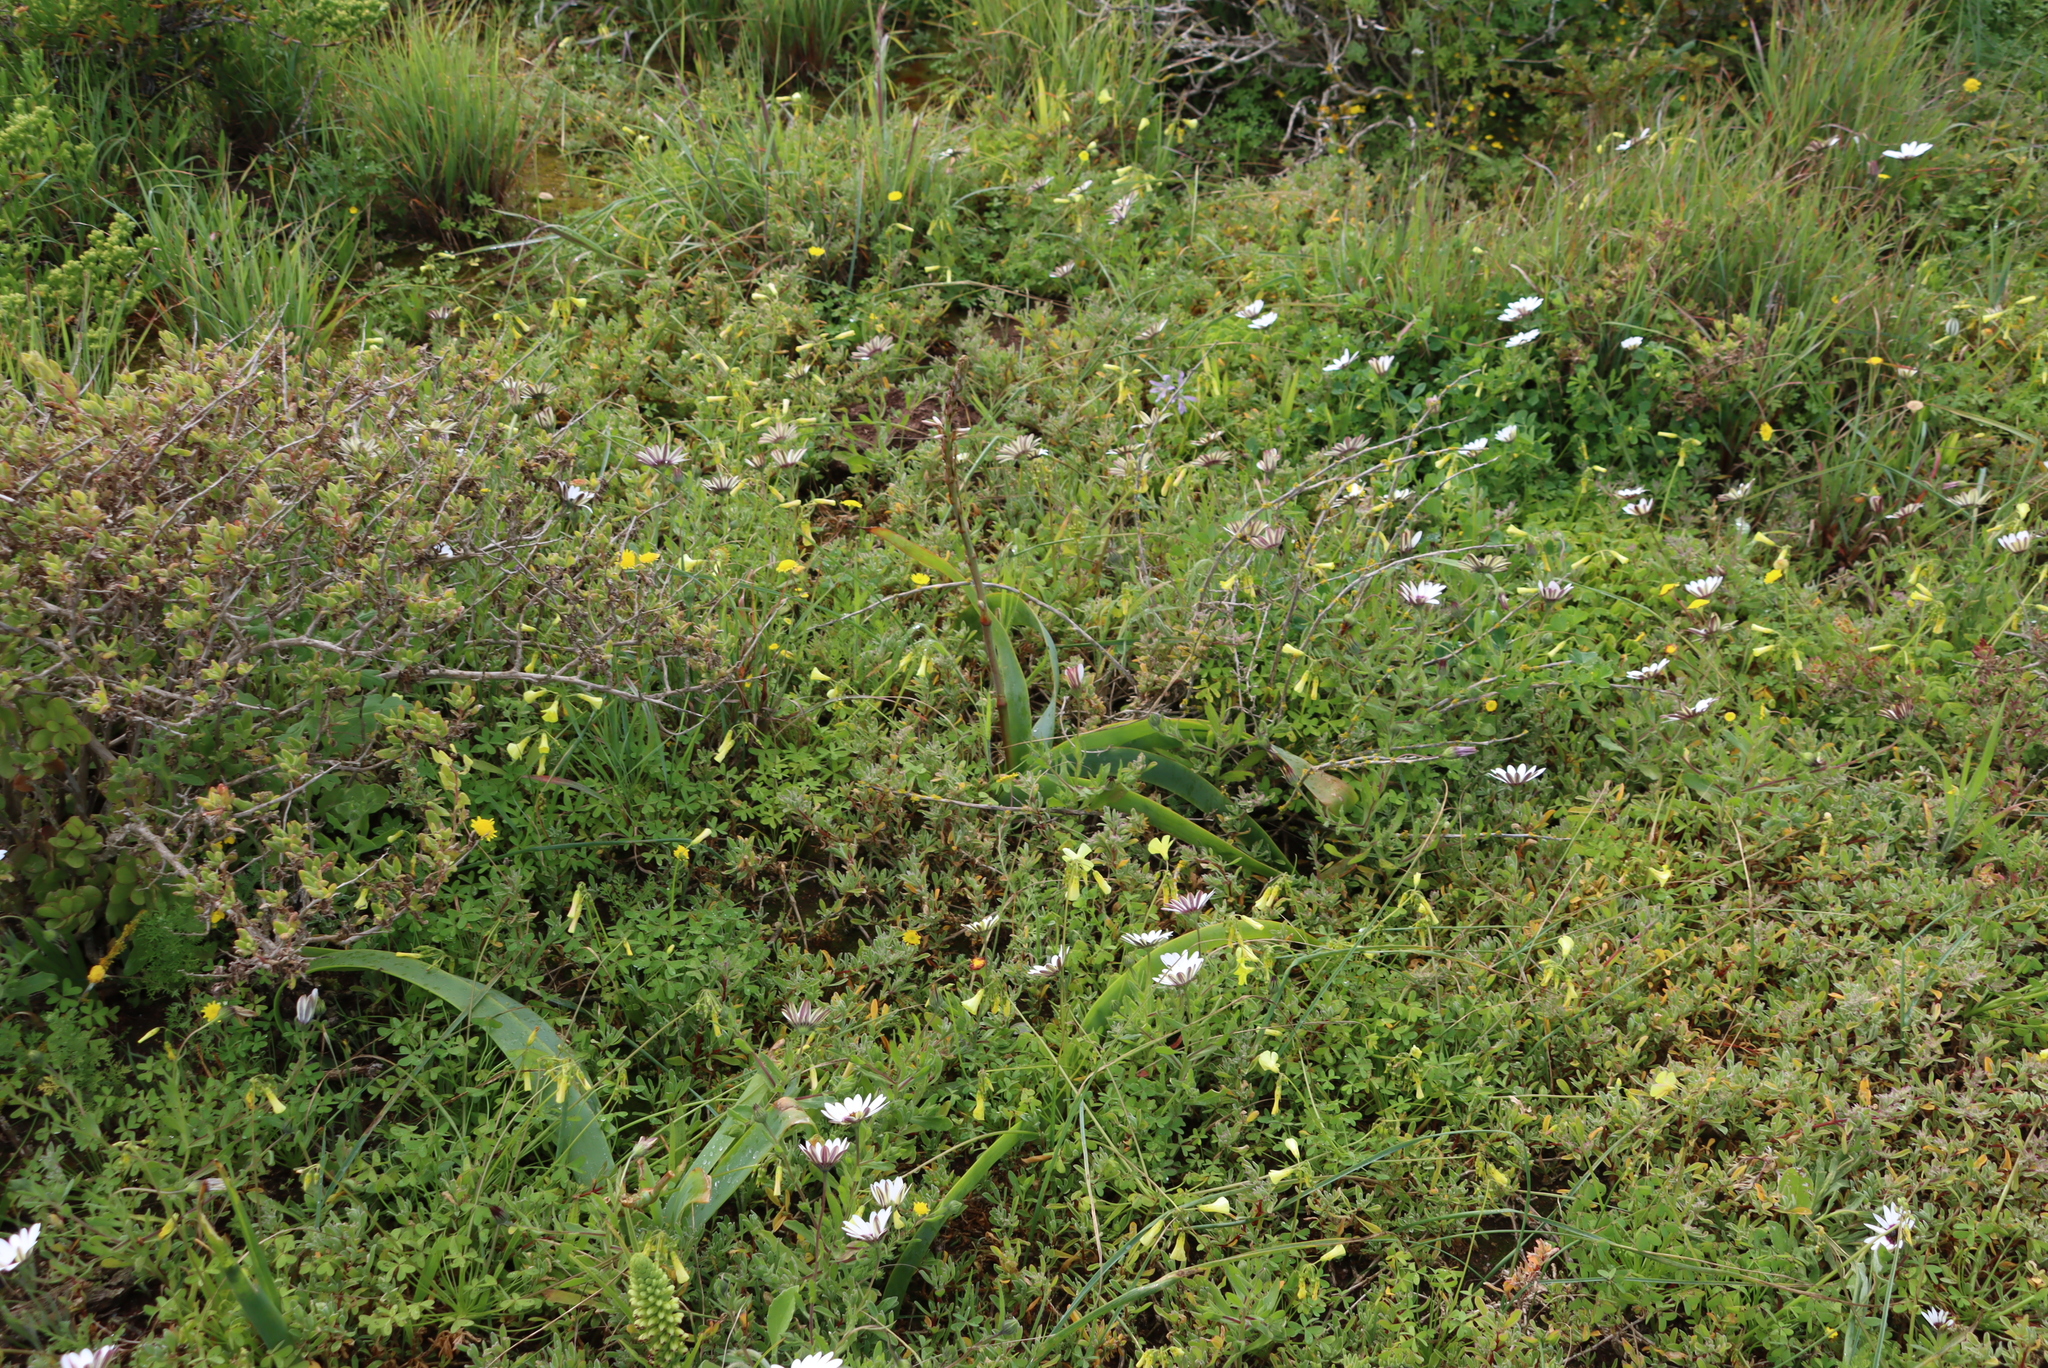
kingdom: Plantae
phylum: Tracheophyta
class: Liliopsida
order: Asparagales
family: Asphodelaceae
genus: Trachyandra
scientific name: Trachyandra falcata
